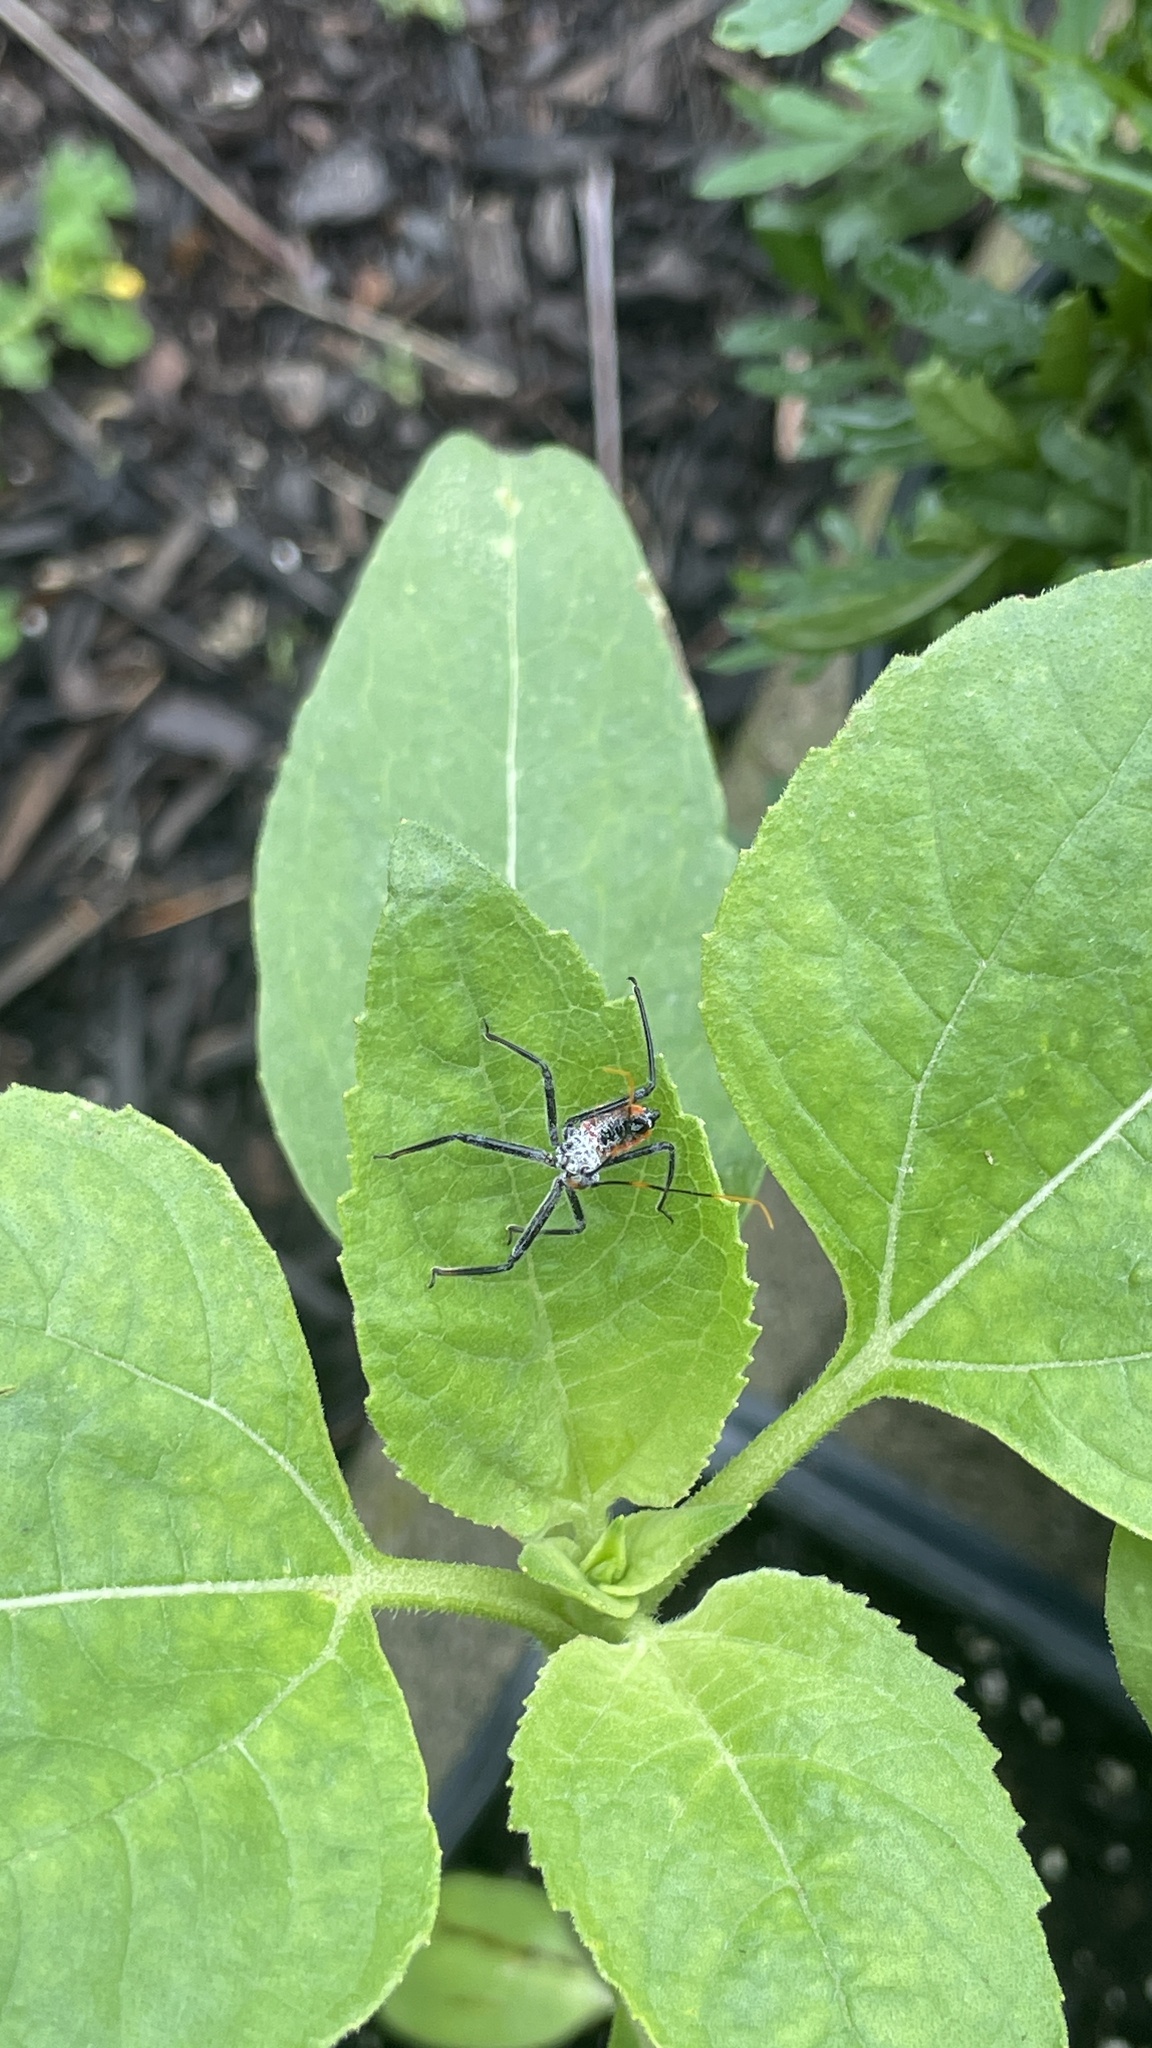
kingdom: Animalia
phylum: Arthropoda
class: Insecta
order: Hemiptera
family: Reduviidae
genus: Arilus
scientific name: Arilus cristatus
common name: North american wheel bug
